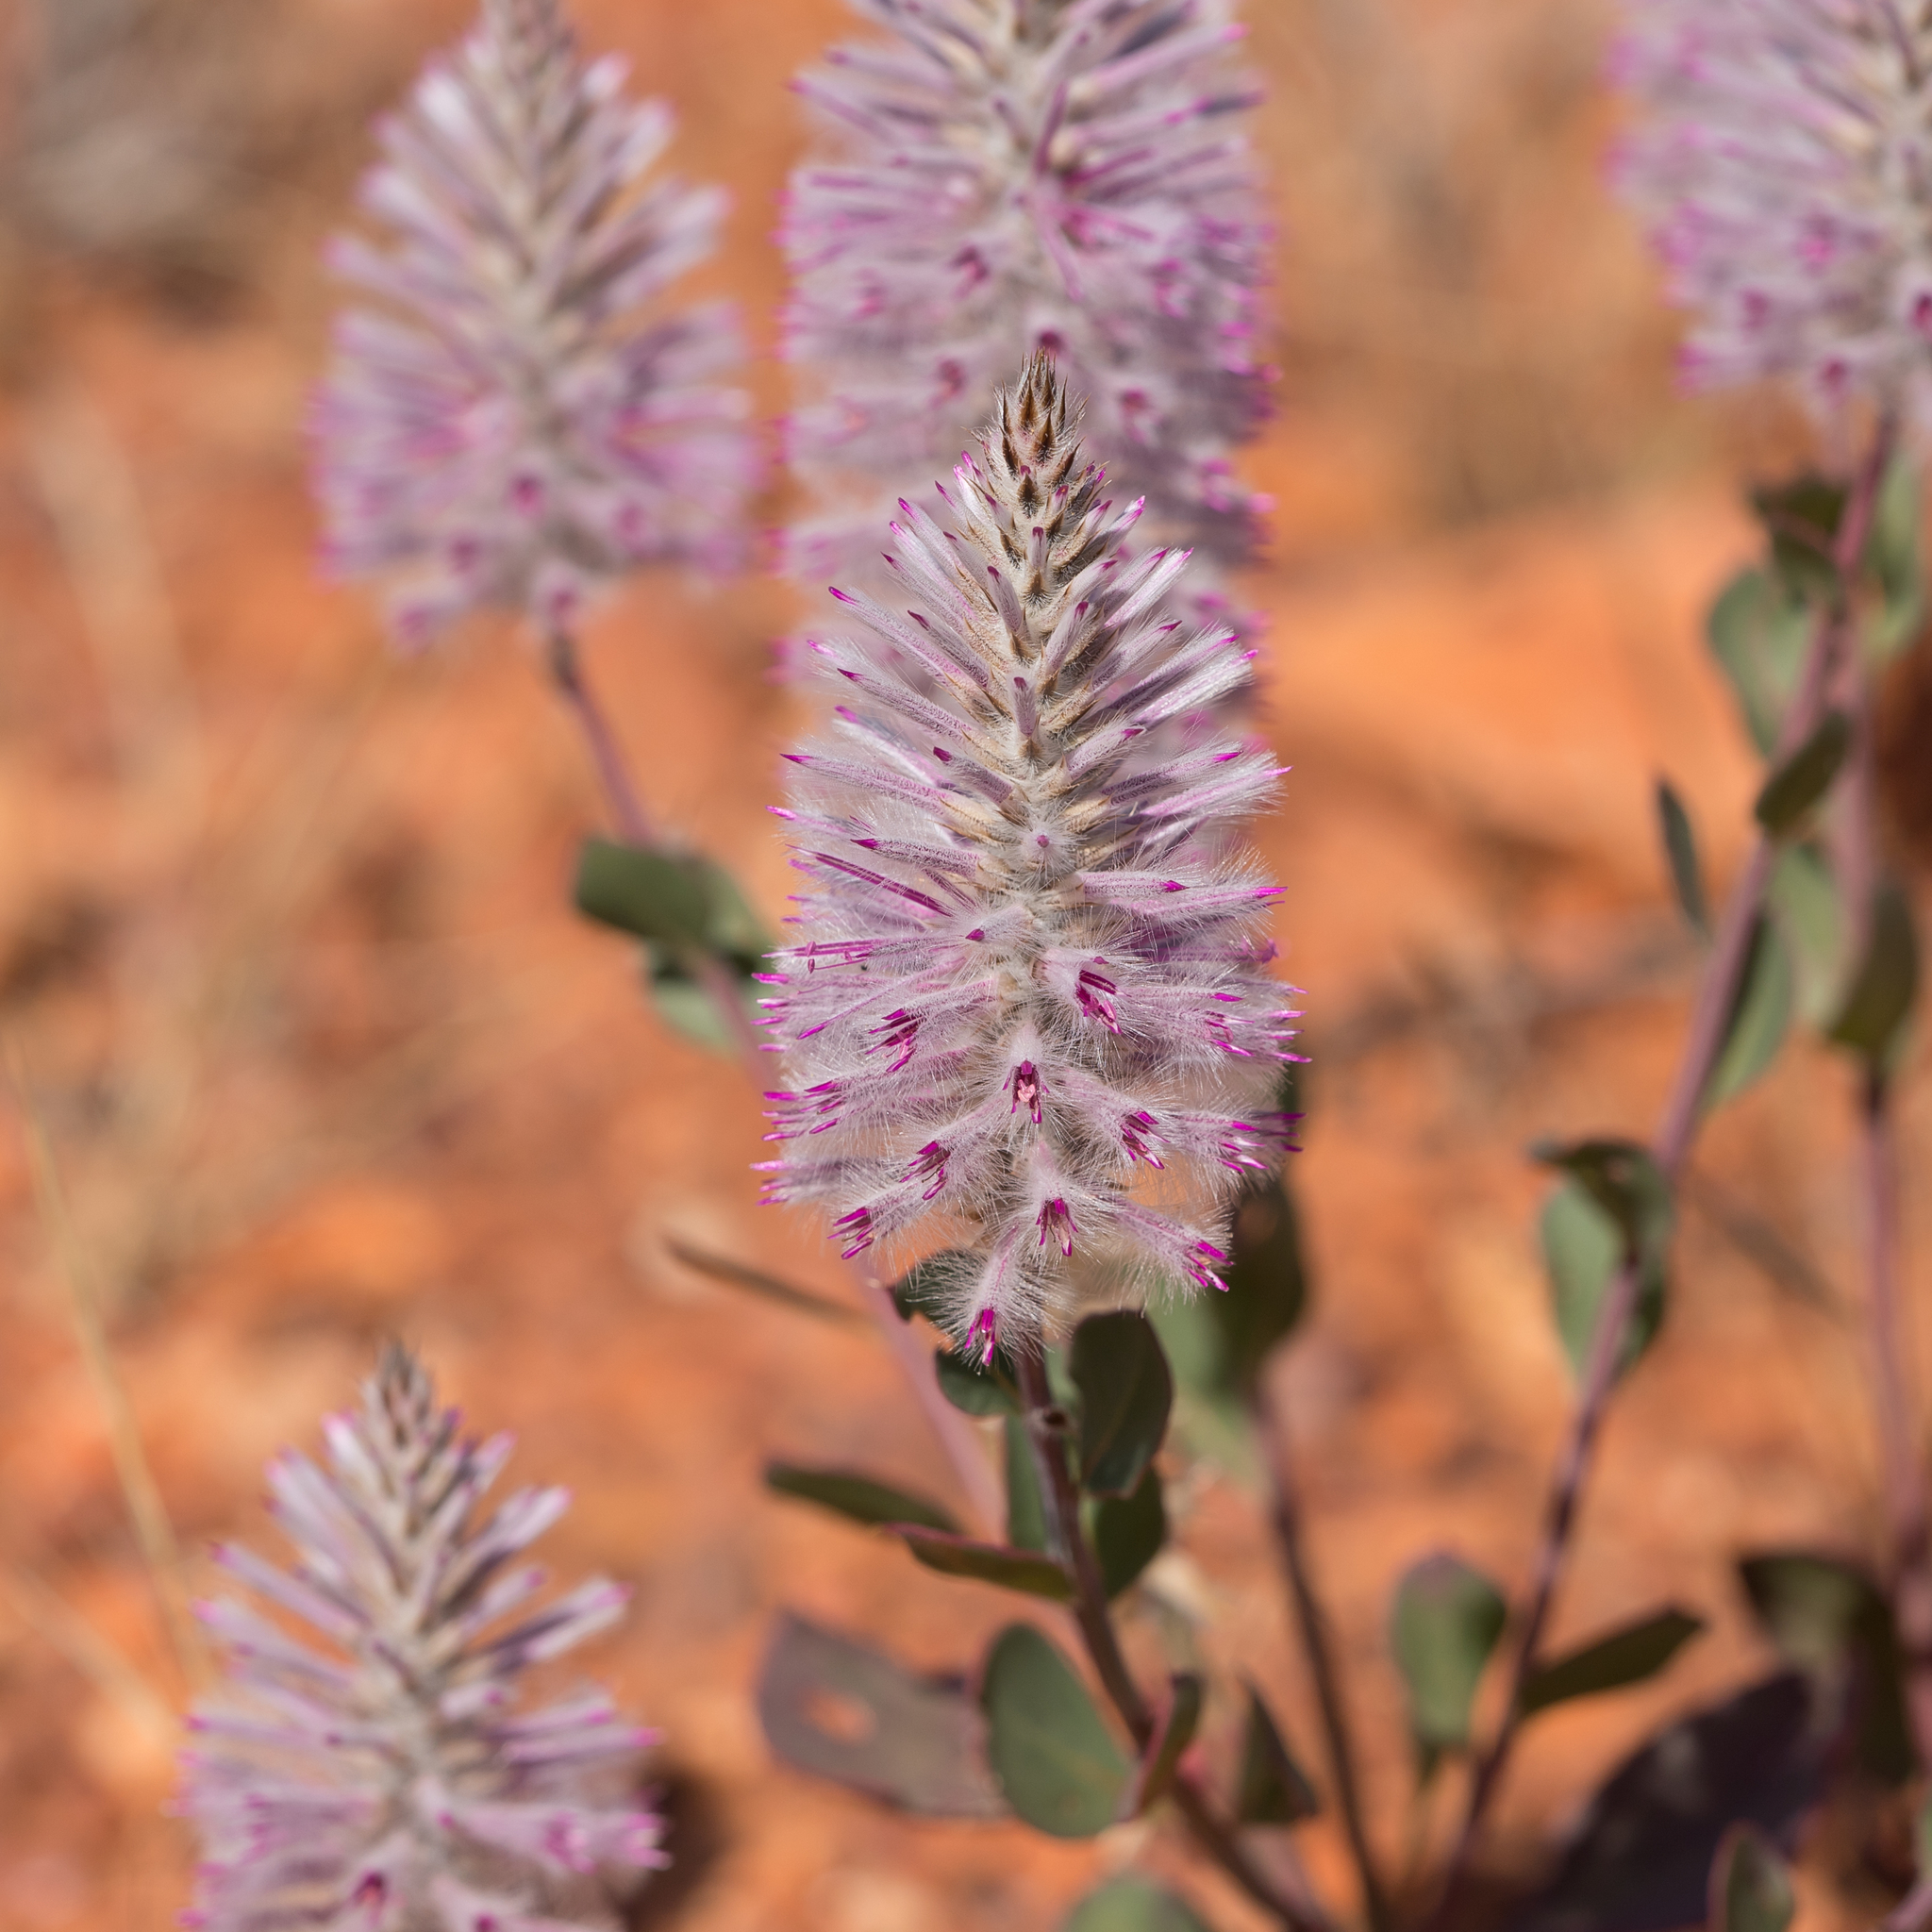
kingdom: Plantae
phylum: Tracheophyta
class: Magnoliopsida
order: Caryophyllales
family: Amaranthaceae
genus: Ptilotus
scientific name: Ptilotus exaltatus
